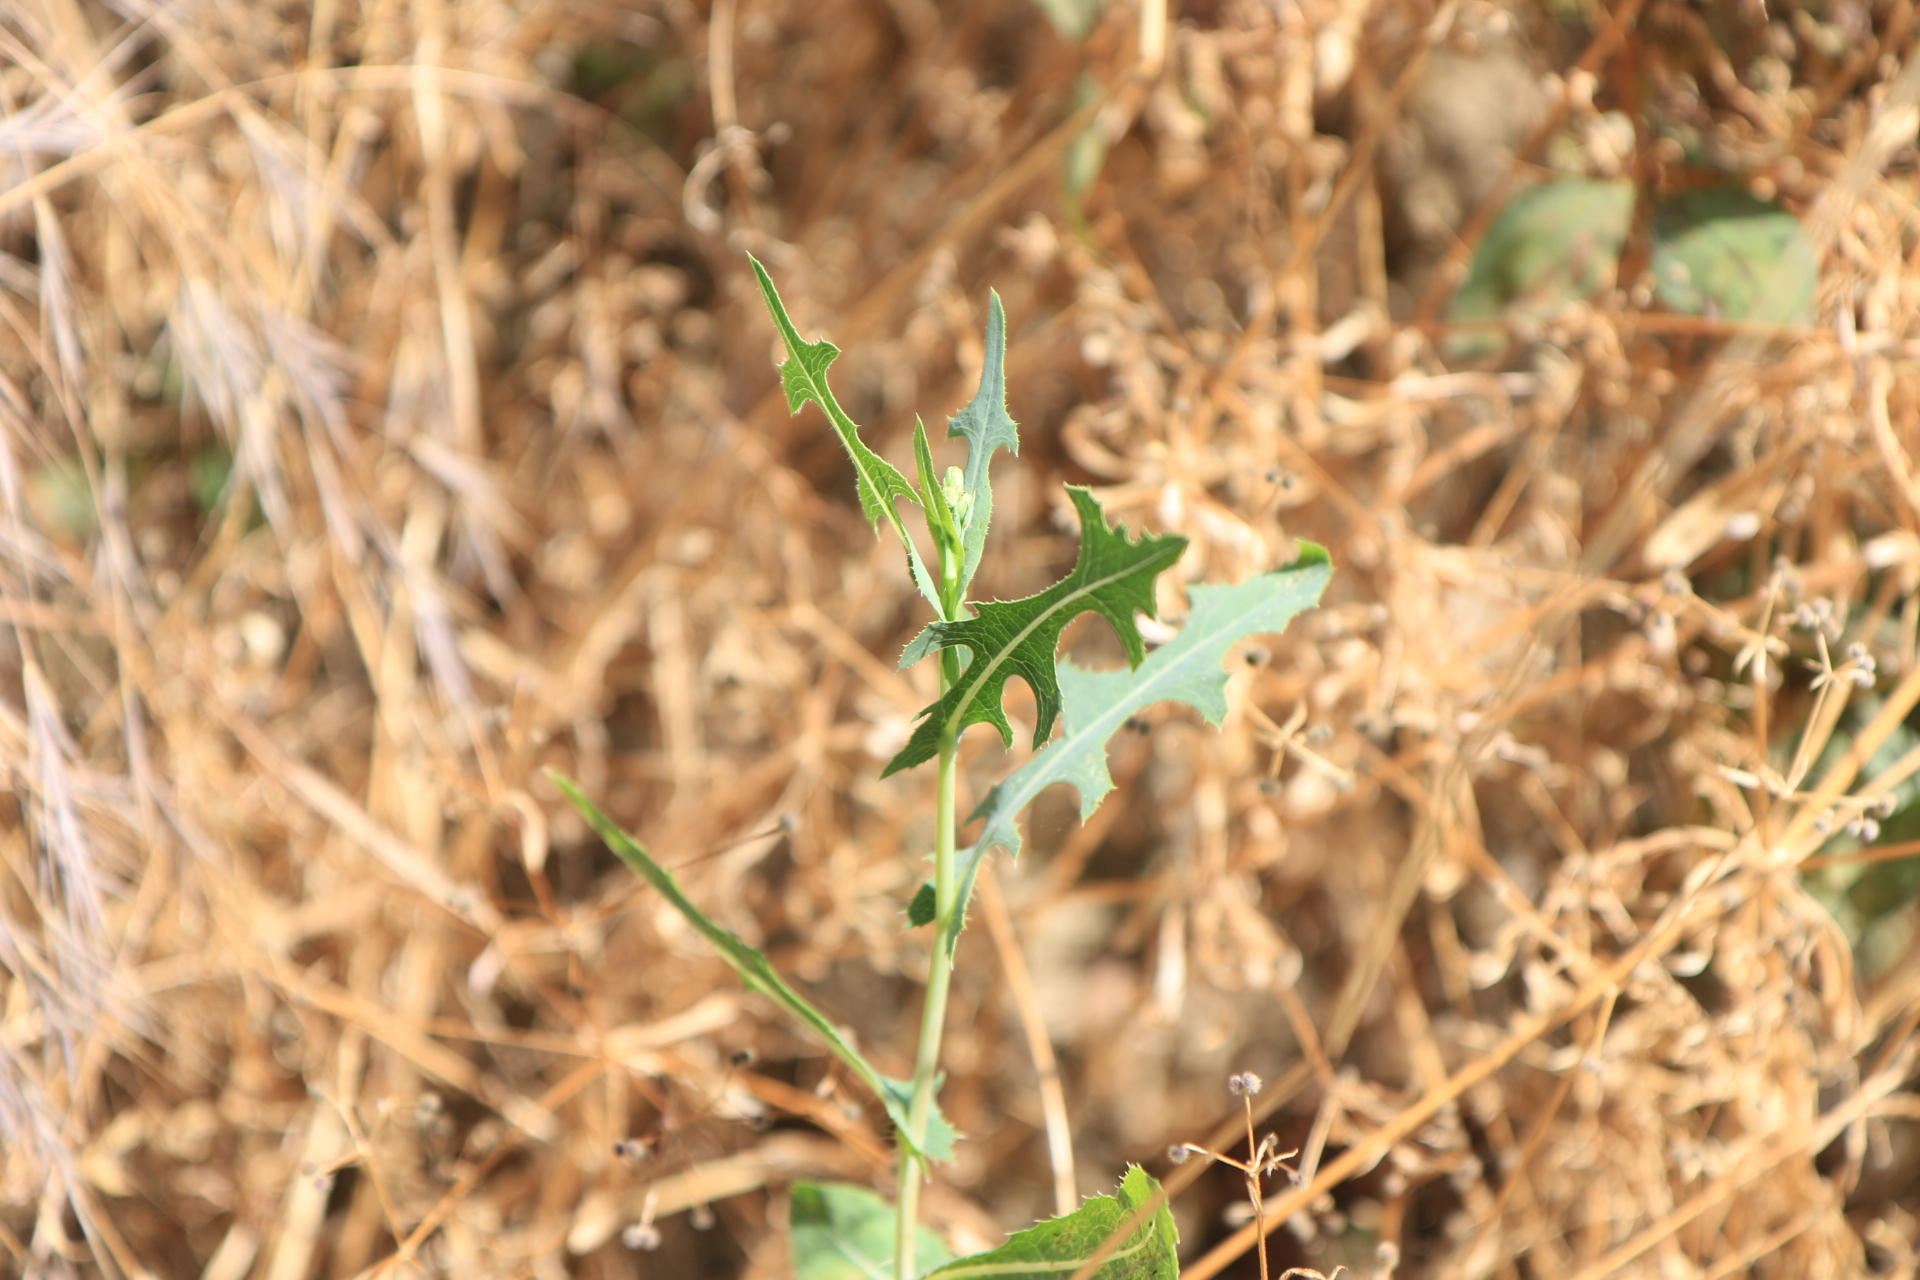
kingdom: Plantae
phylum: Tracheophyta
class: Magnoliopsida
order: Asterales
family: Asteraceae
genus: Lactuca
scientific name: Lactuca serriola
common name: Prickly lettuce
